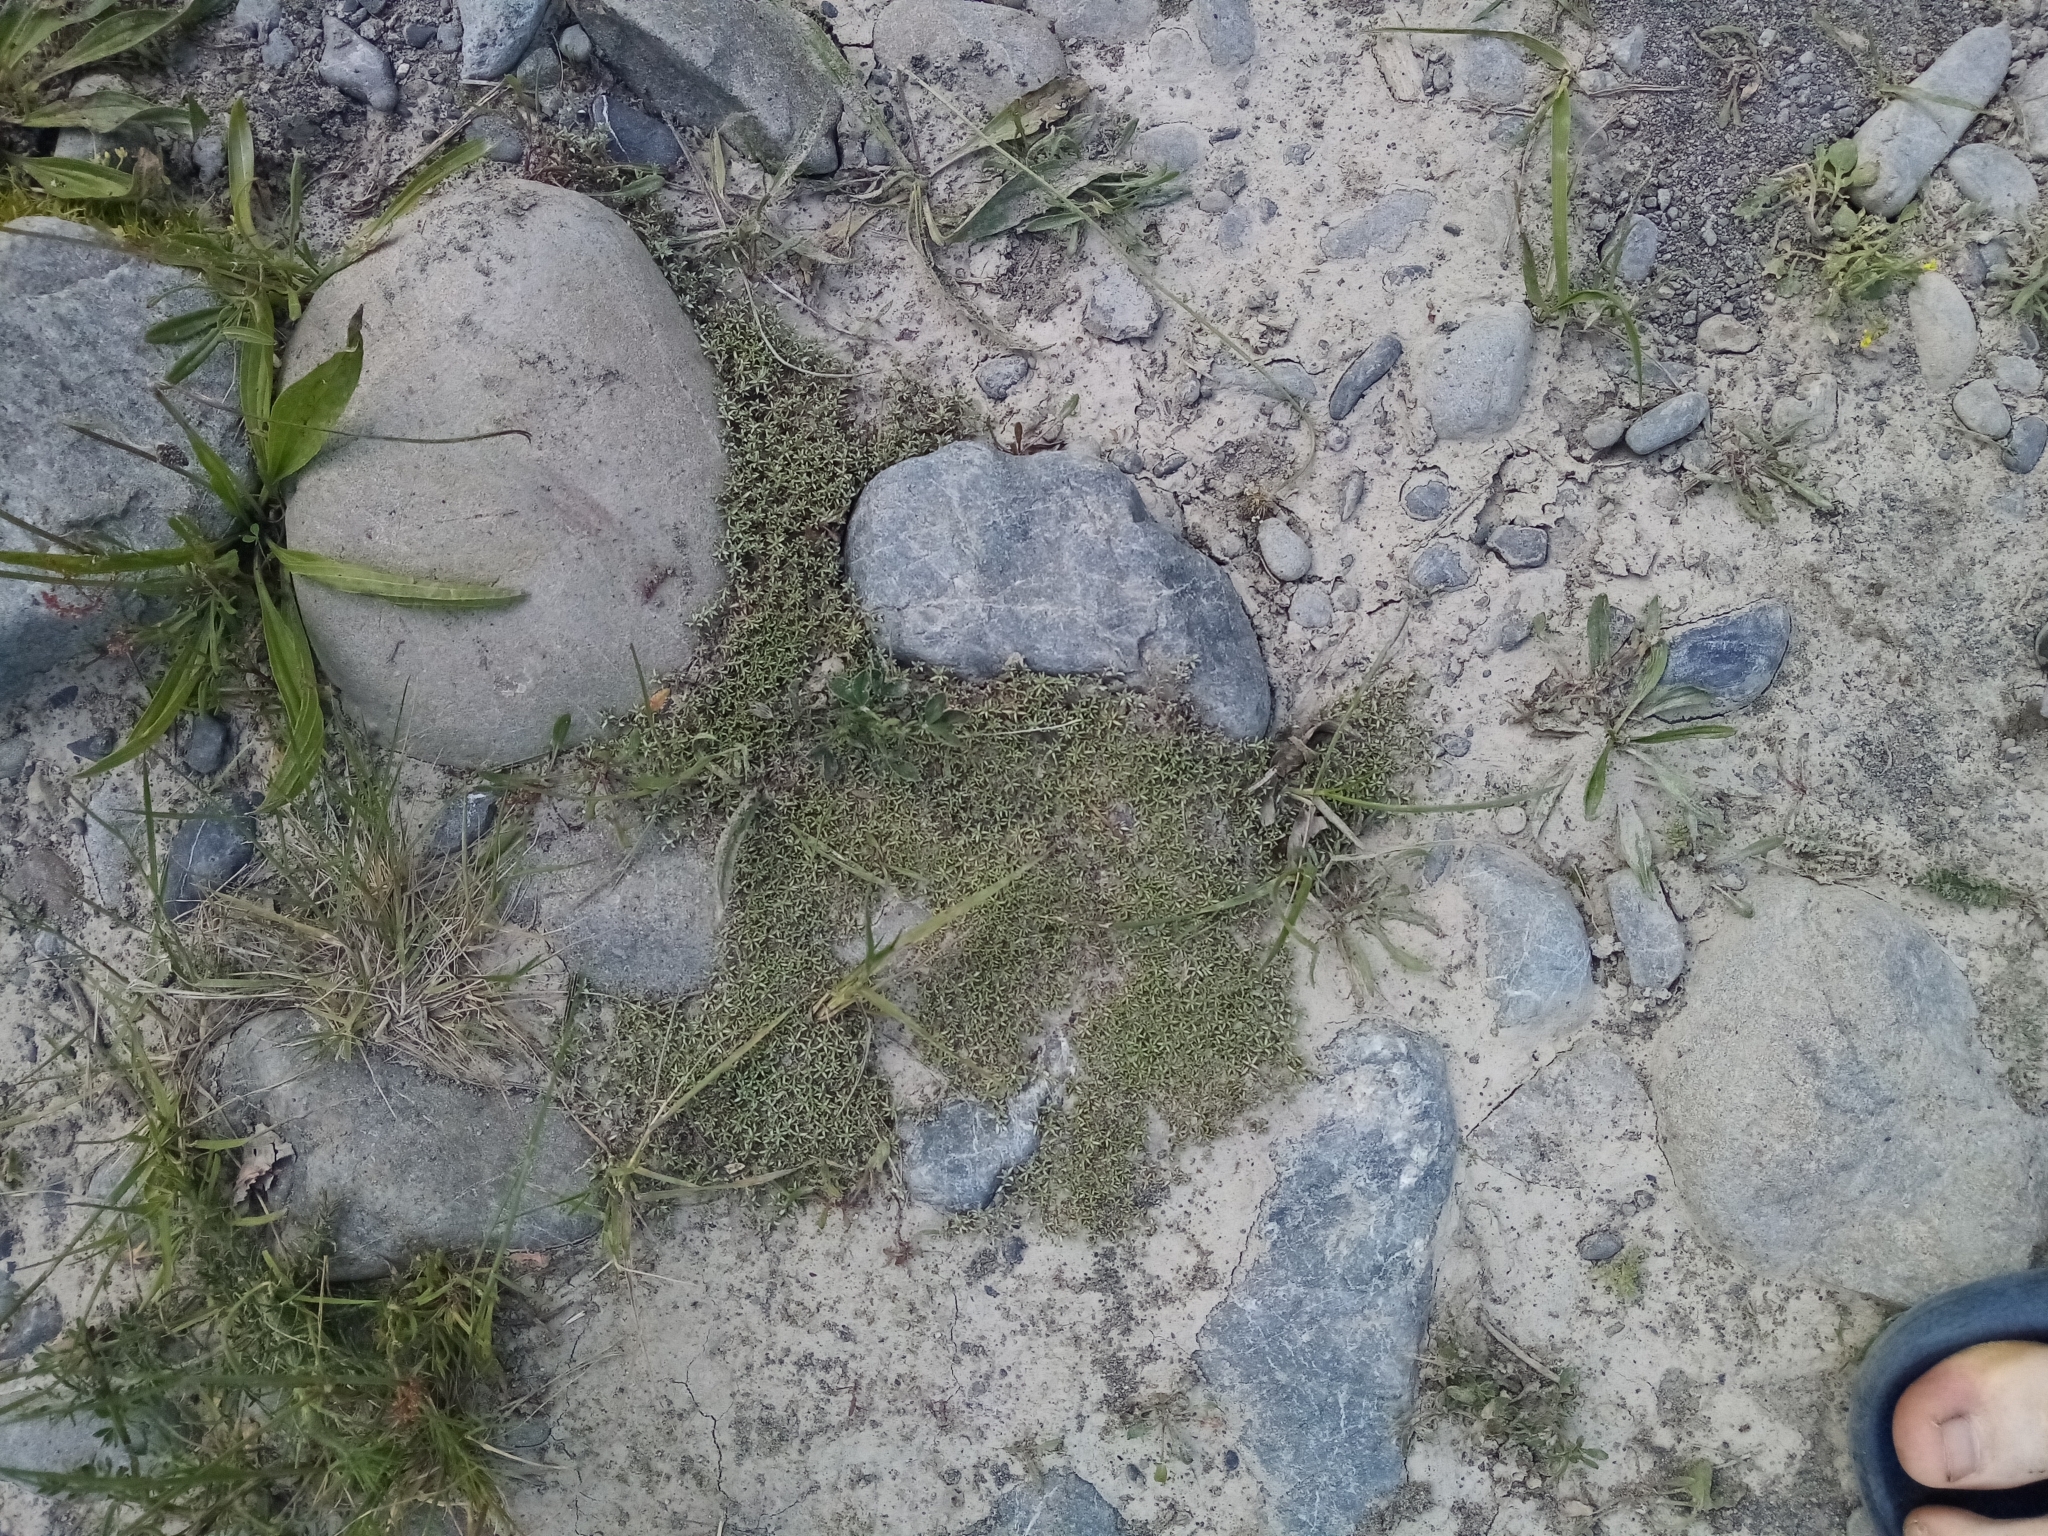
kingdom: Plantae
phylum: Tracheophyta
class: Magnoliopsida
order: Asterales
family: Asteraceae
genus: Raoulia
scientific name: Raoulia tenuicaulis
